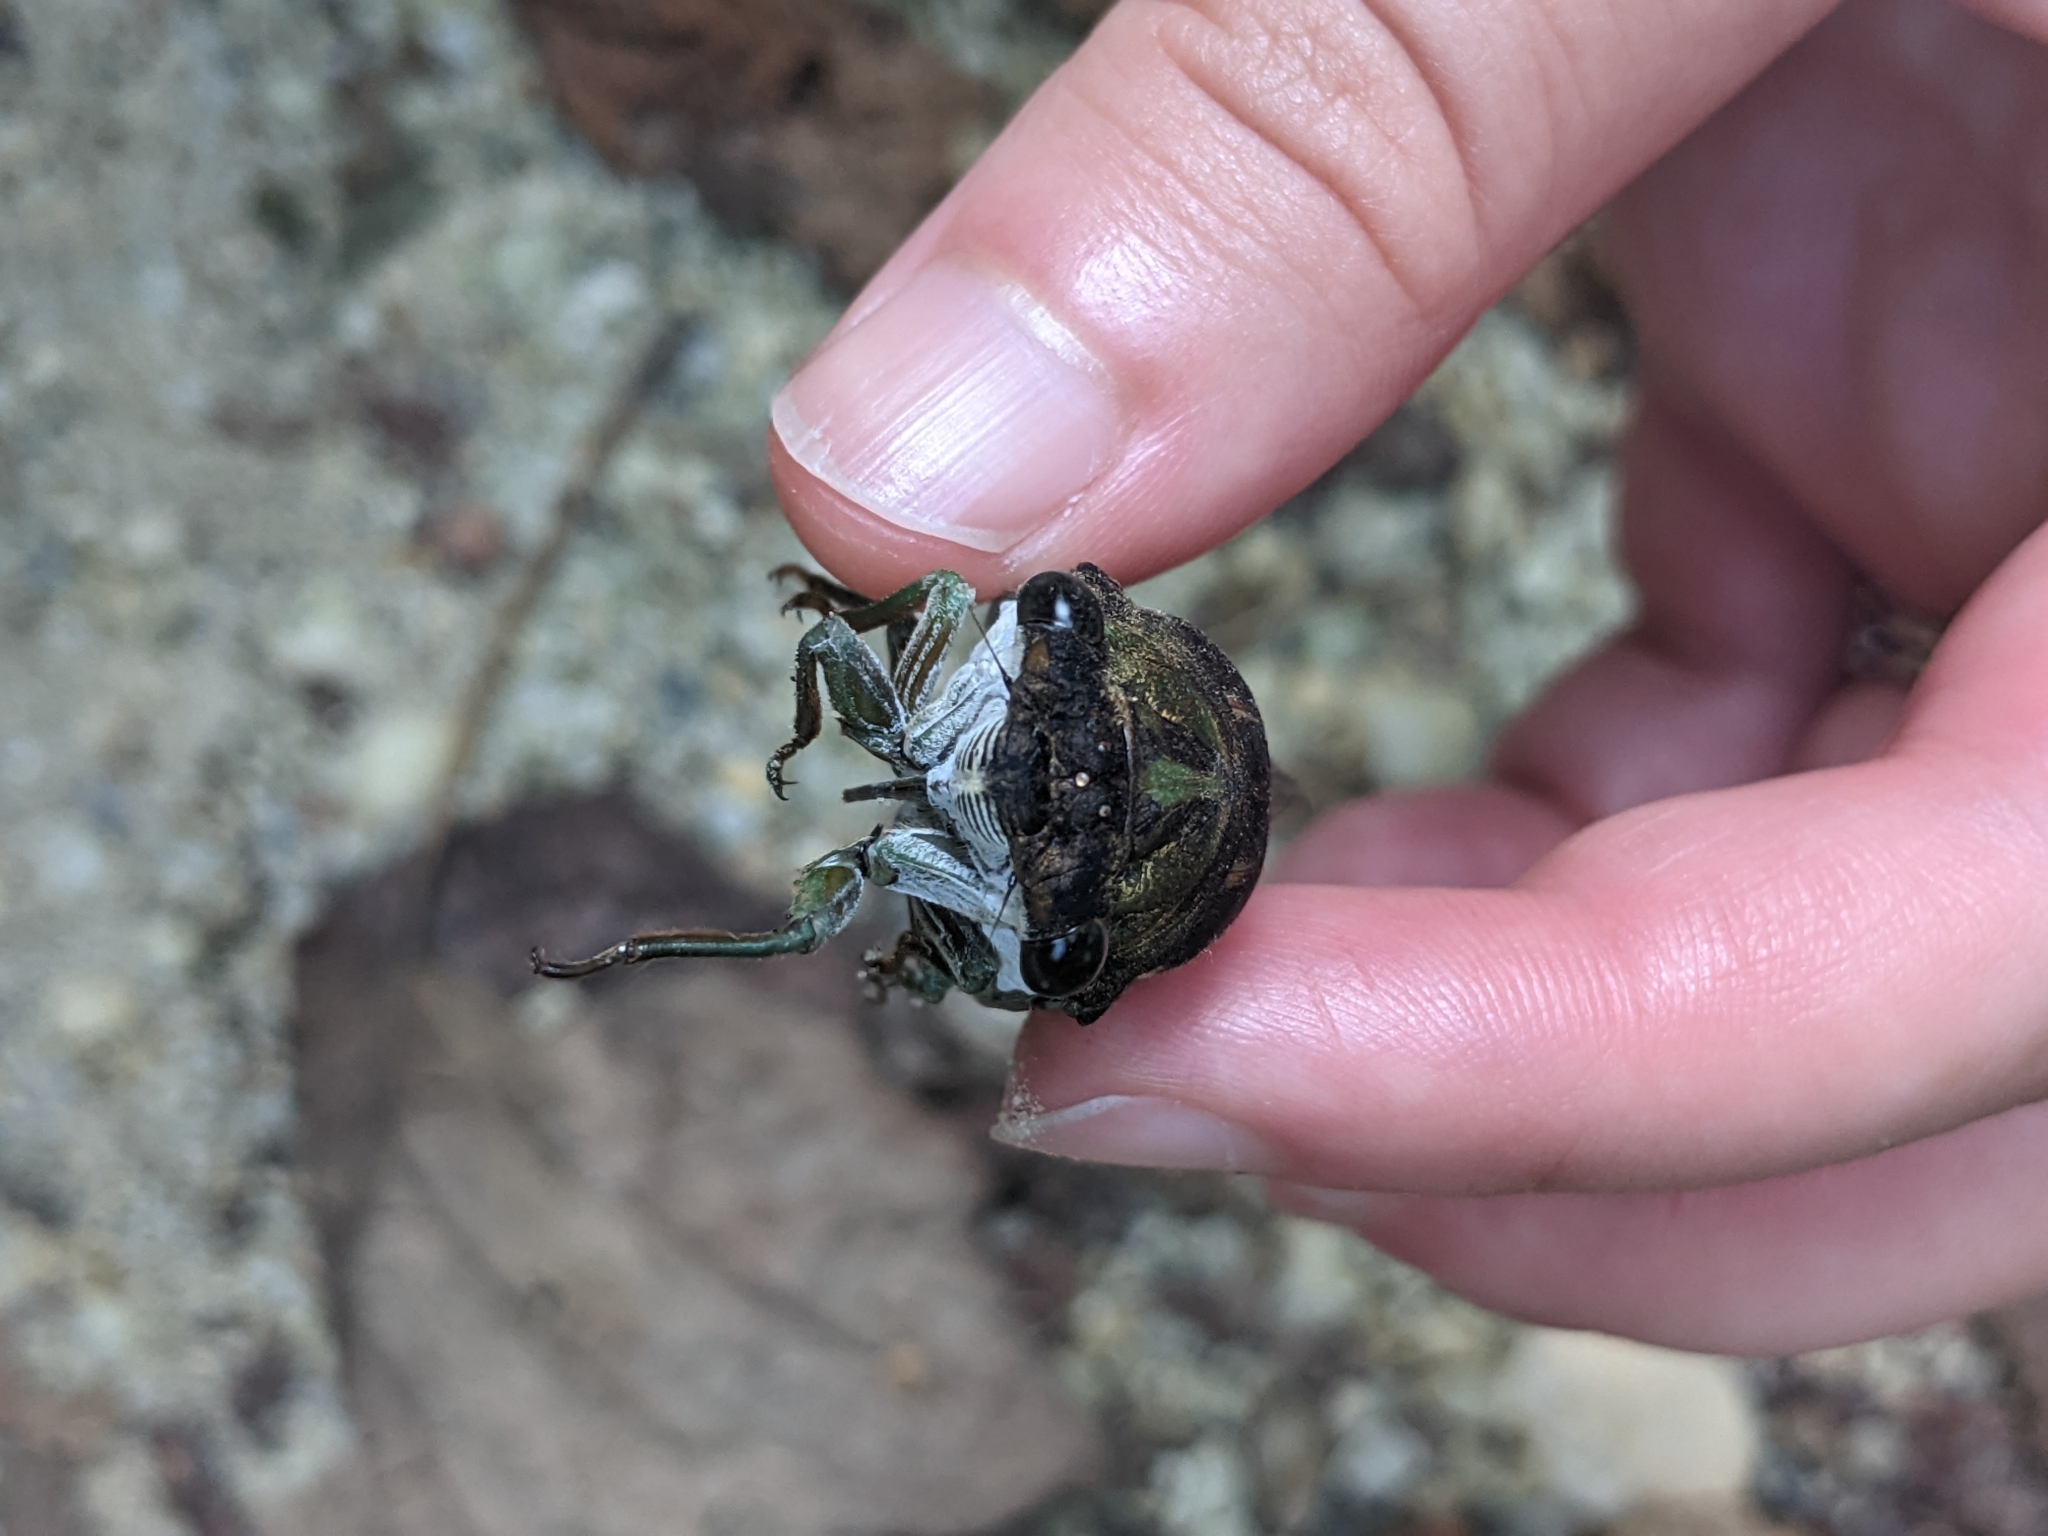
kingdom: Animalia
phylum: Arthropoda
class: Insecta
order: Hemiptera
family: Cicadidae
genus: Neotibicen
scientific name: Neotibicen tibicen
